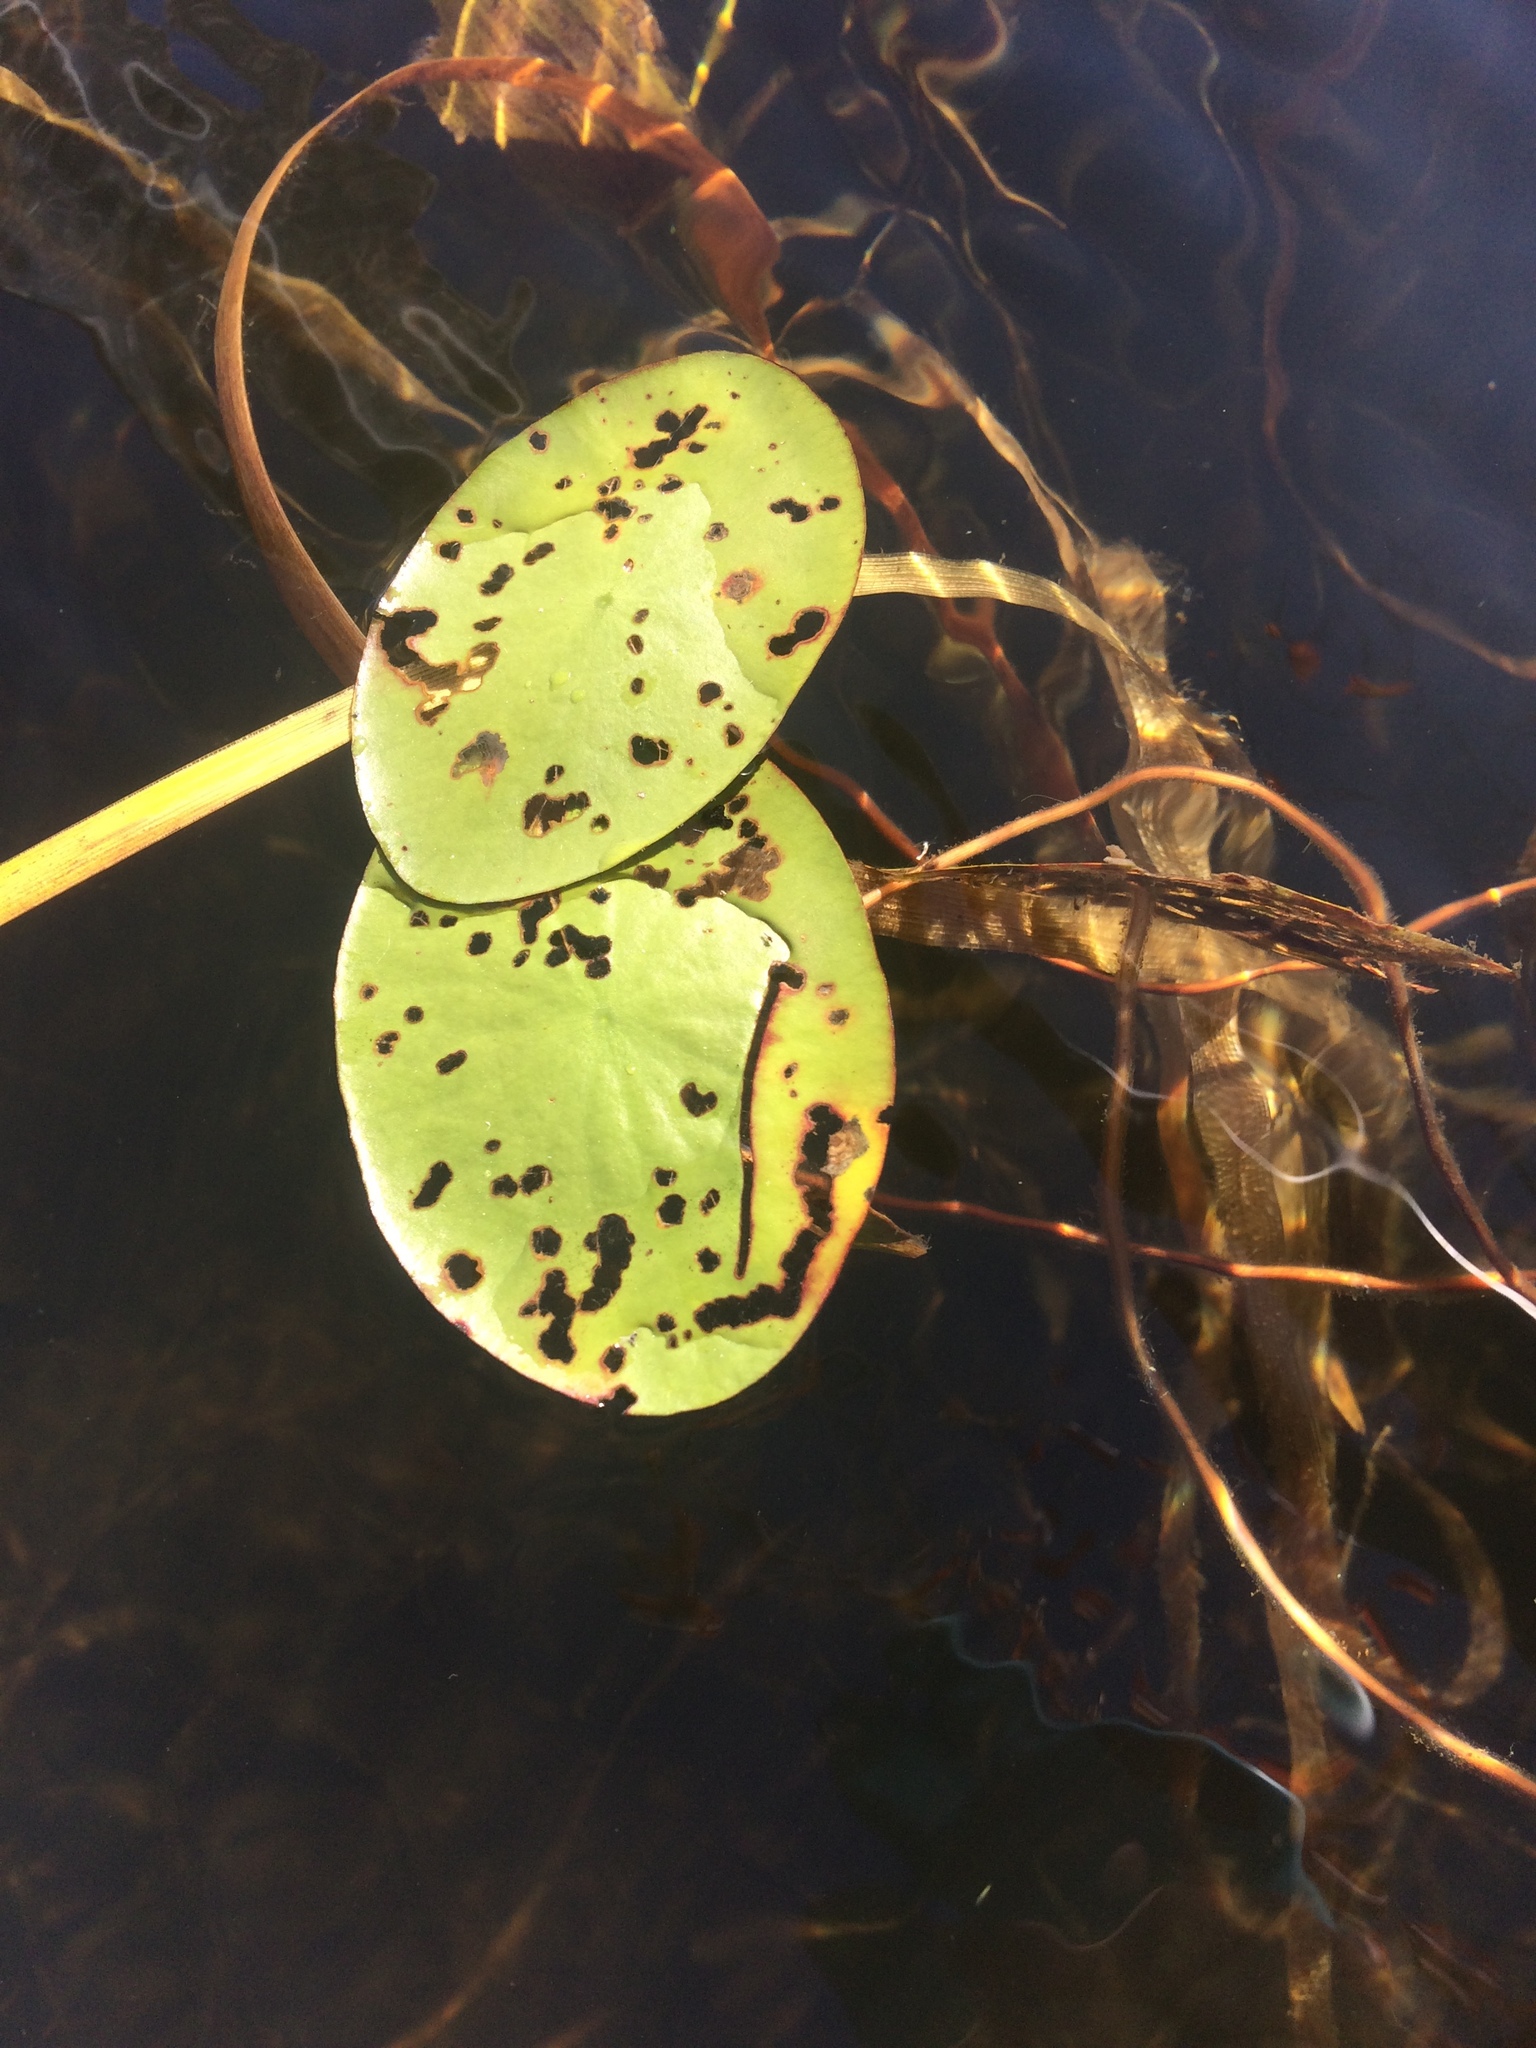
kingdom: Plantae
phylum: Tracheophyta
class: Magnoliopsida
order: Nymphaeales
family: Cabombaceae
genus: Brasenia
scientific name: Brasenia schreberi
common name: Water-shield
